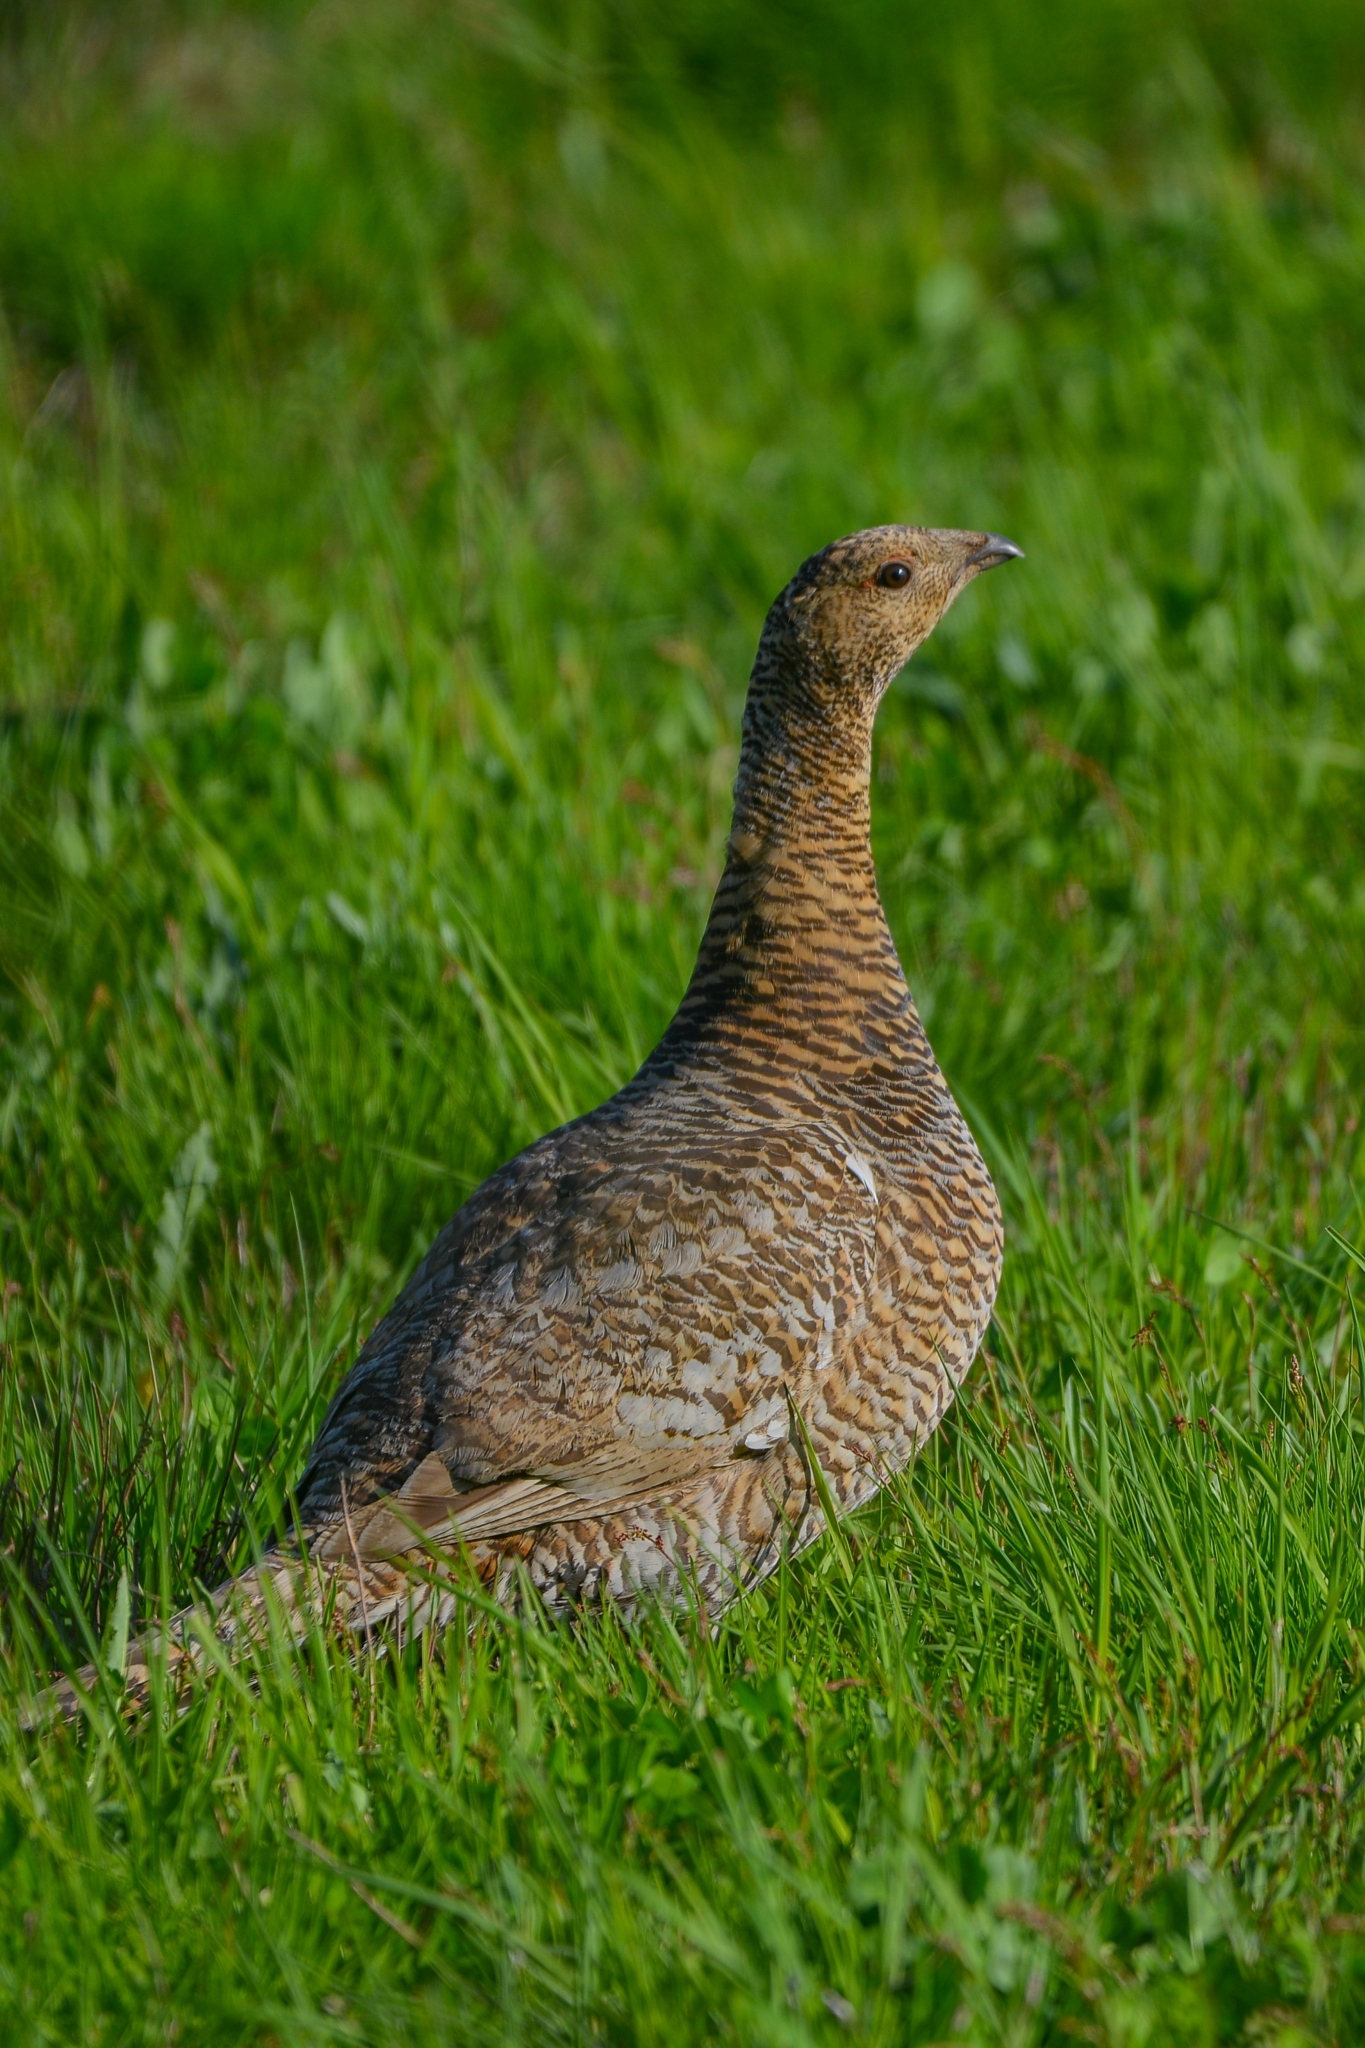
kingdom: Animalia
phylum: Chordata
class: Aves
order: Galliformes
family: Phasianidae
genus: Tetrao
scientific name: Tetrao urogalloides
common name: Black-billed capercaillie
